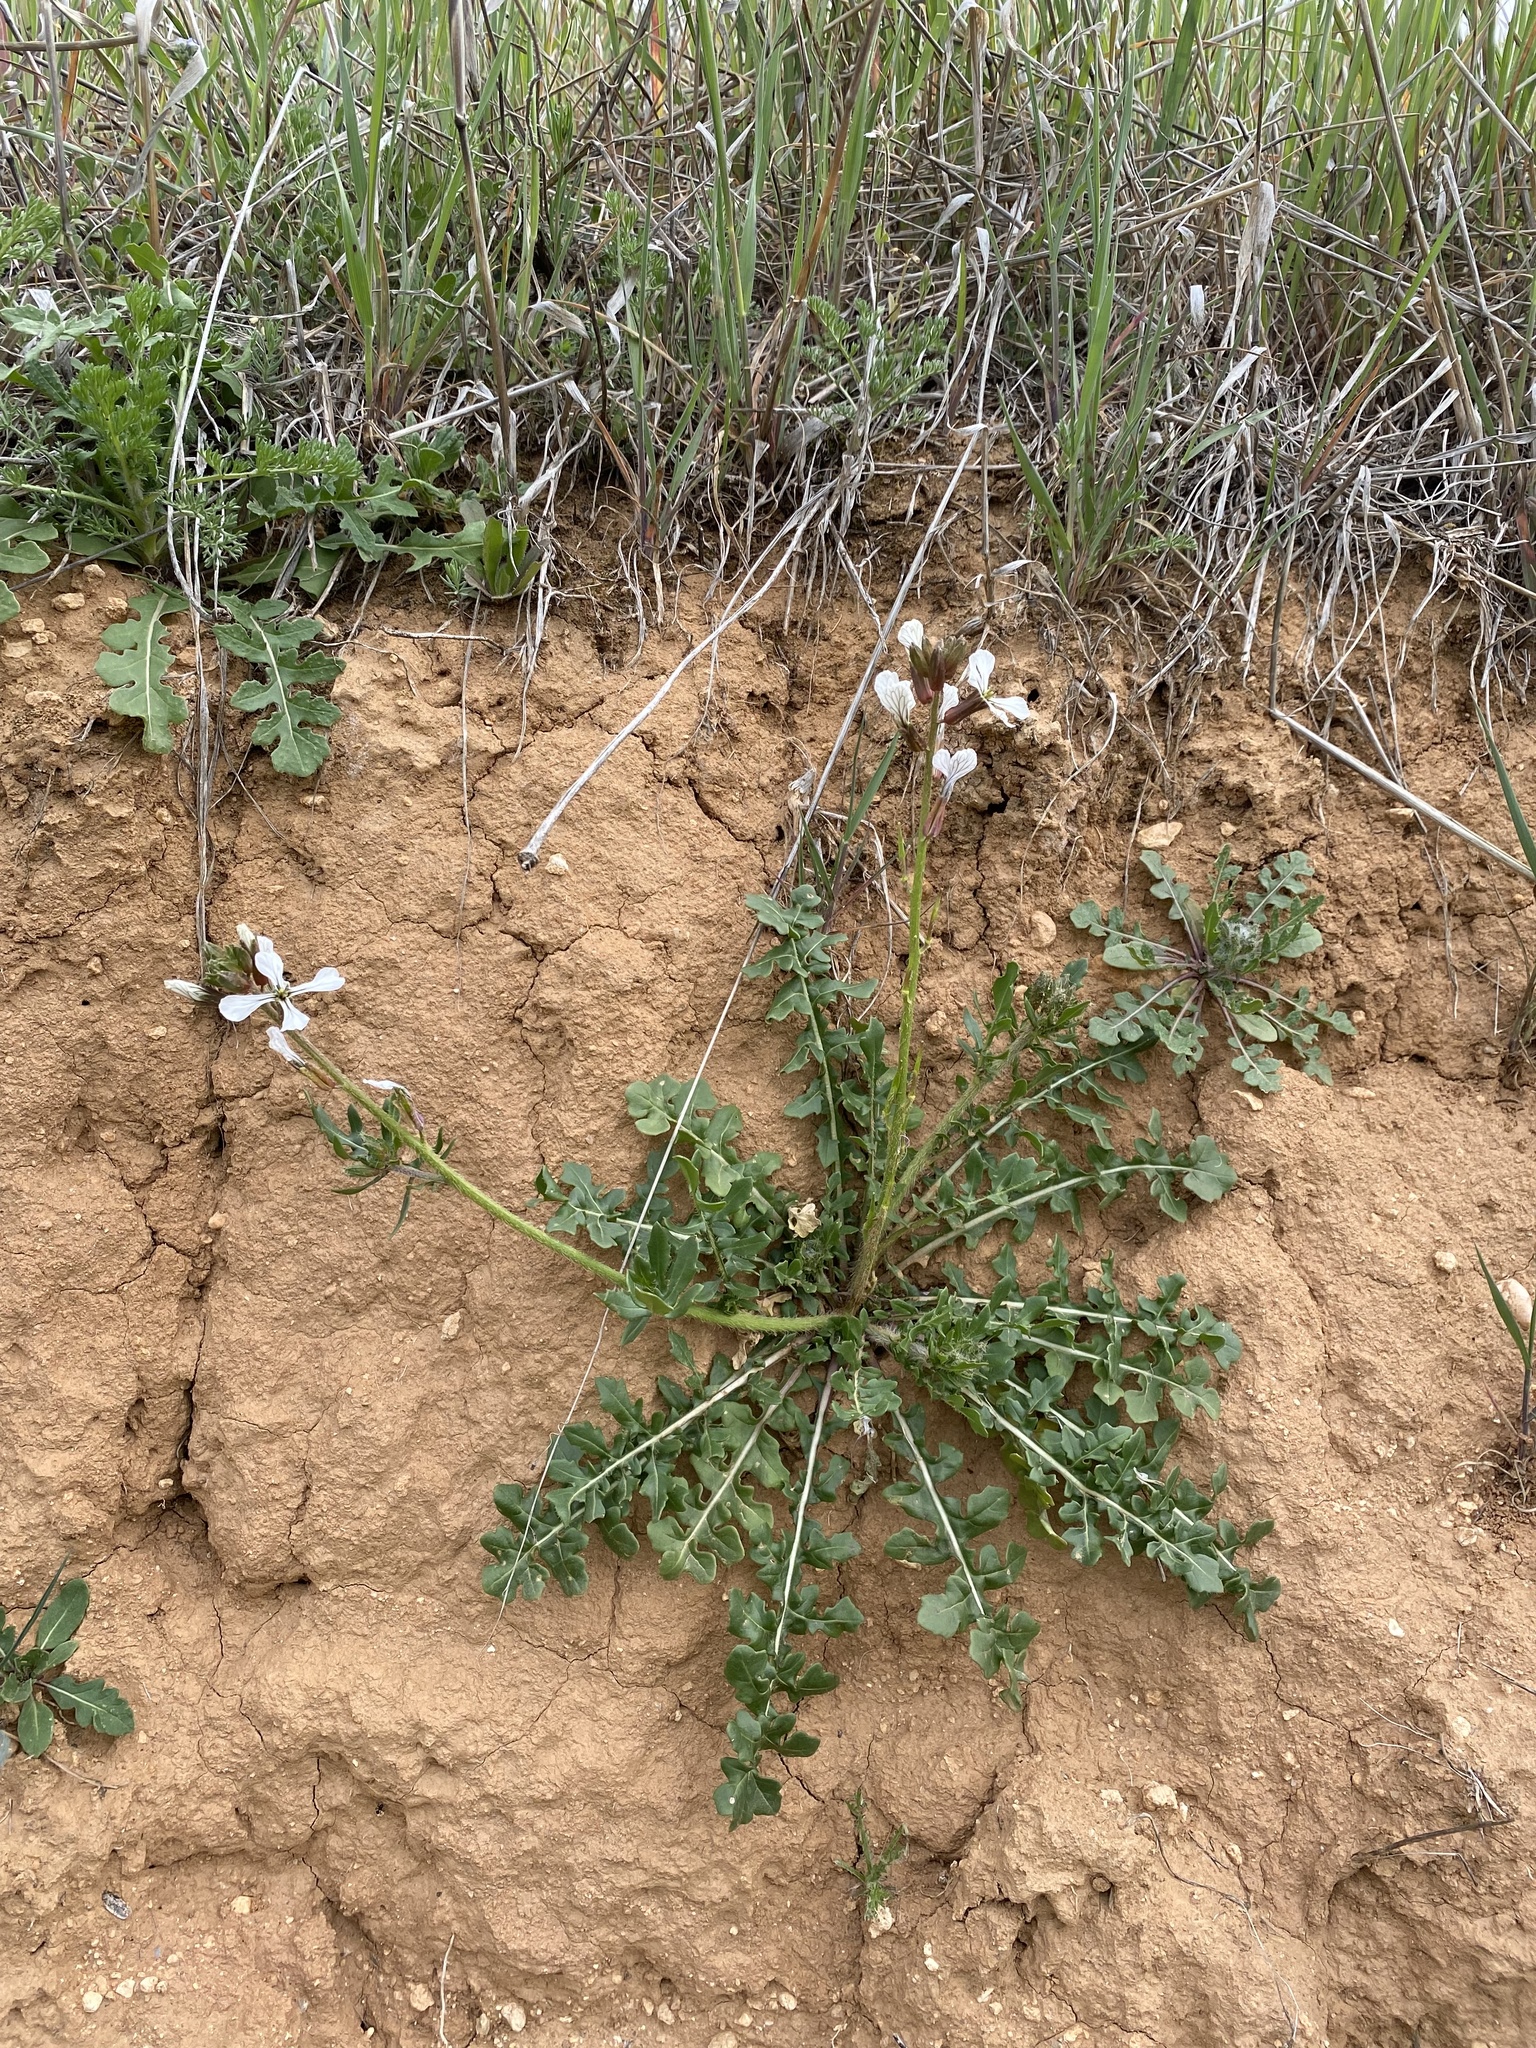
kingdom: Plantae
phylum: Tracheophyta
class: Magnoliopsida
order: Brassicales
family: Brassicaceae
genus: Eruca
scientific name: Eruca vesicaria
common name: Garden rocket
